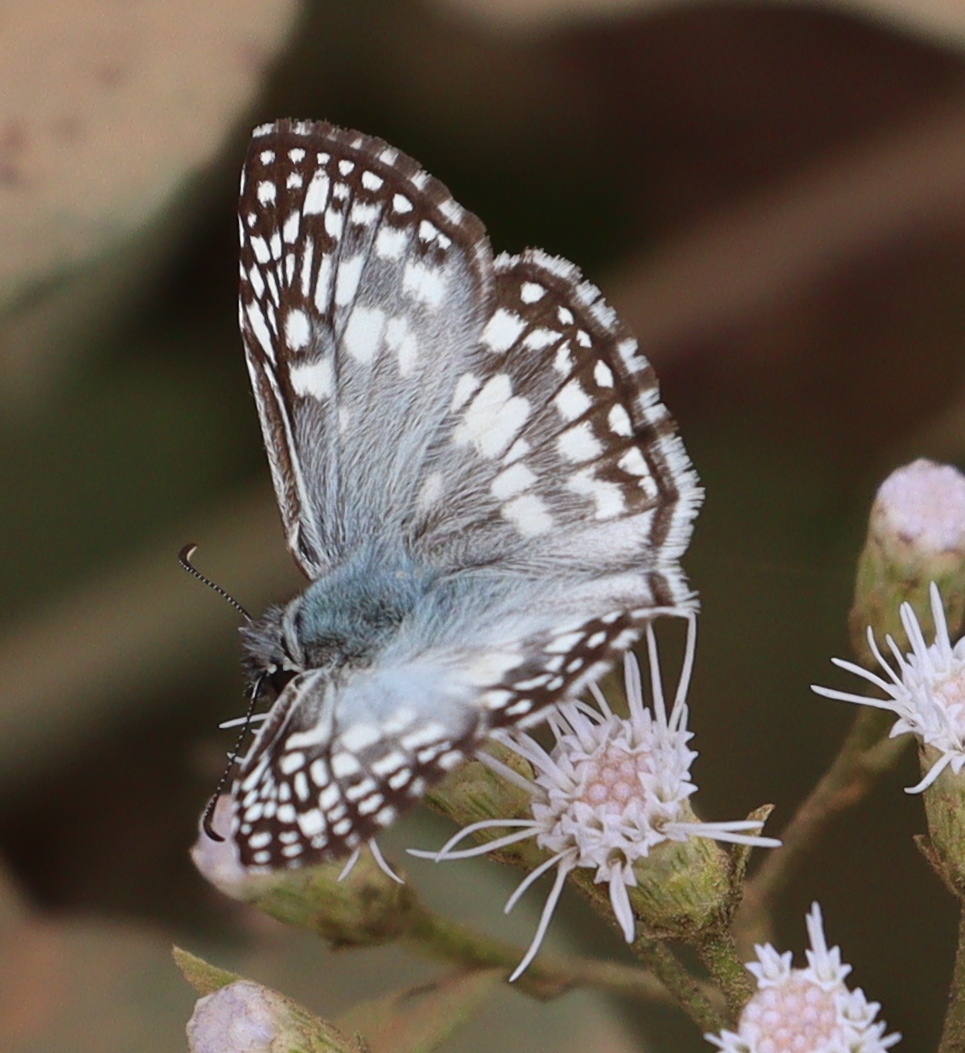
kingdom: Animalia
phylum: Arthropoda
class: Insecta
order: Lepidoptera
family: Hesperiidae
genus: Pyrgus
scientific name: Pyrgus oileus
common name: Tropical checkered-skipper
